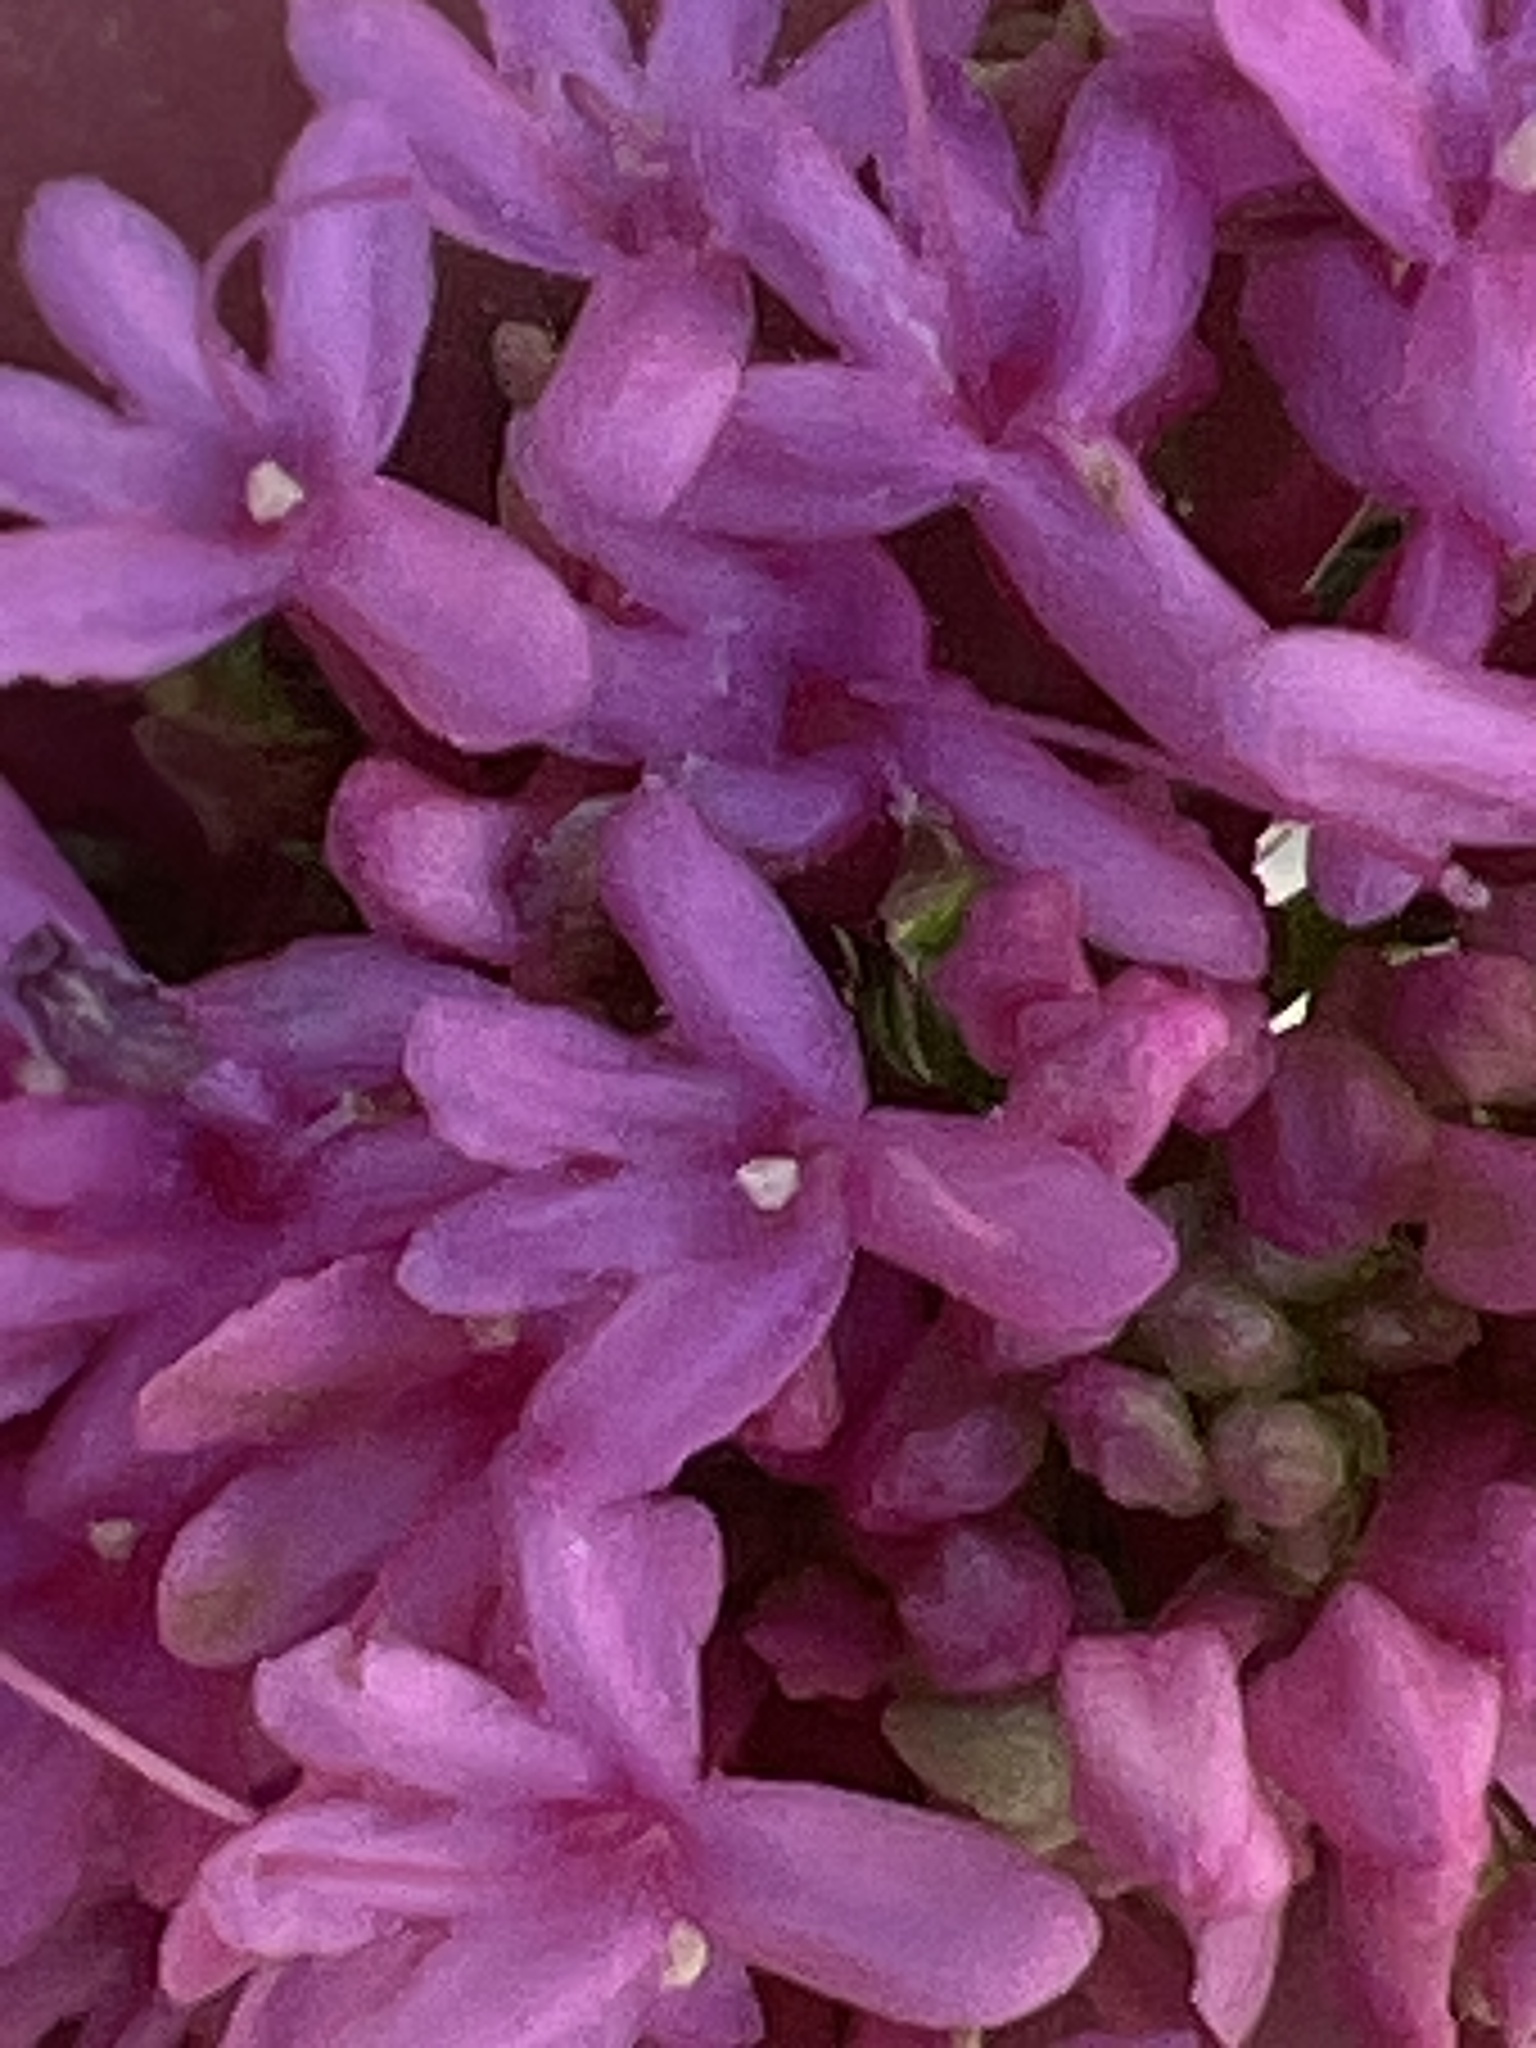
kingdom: Plantae
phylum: Tracheophyta
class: Magnoliopsida
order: Dipsacales
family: Caprifoliaceae
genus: Centranthus
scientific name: Centranthus ruber
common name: Red valerian
